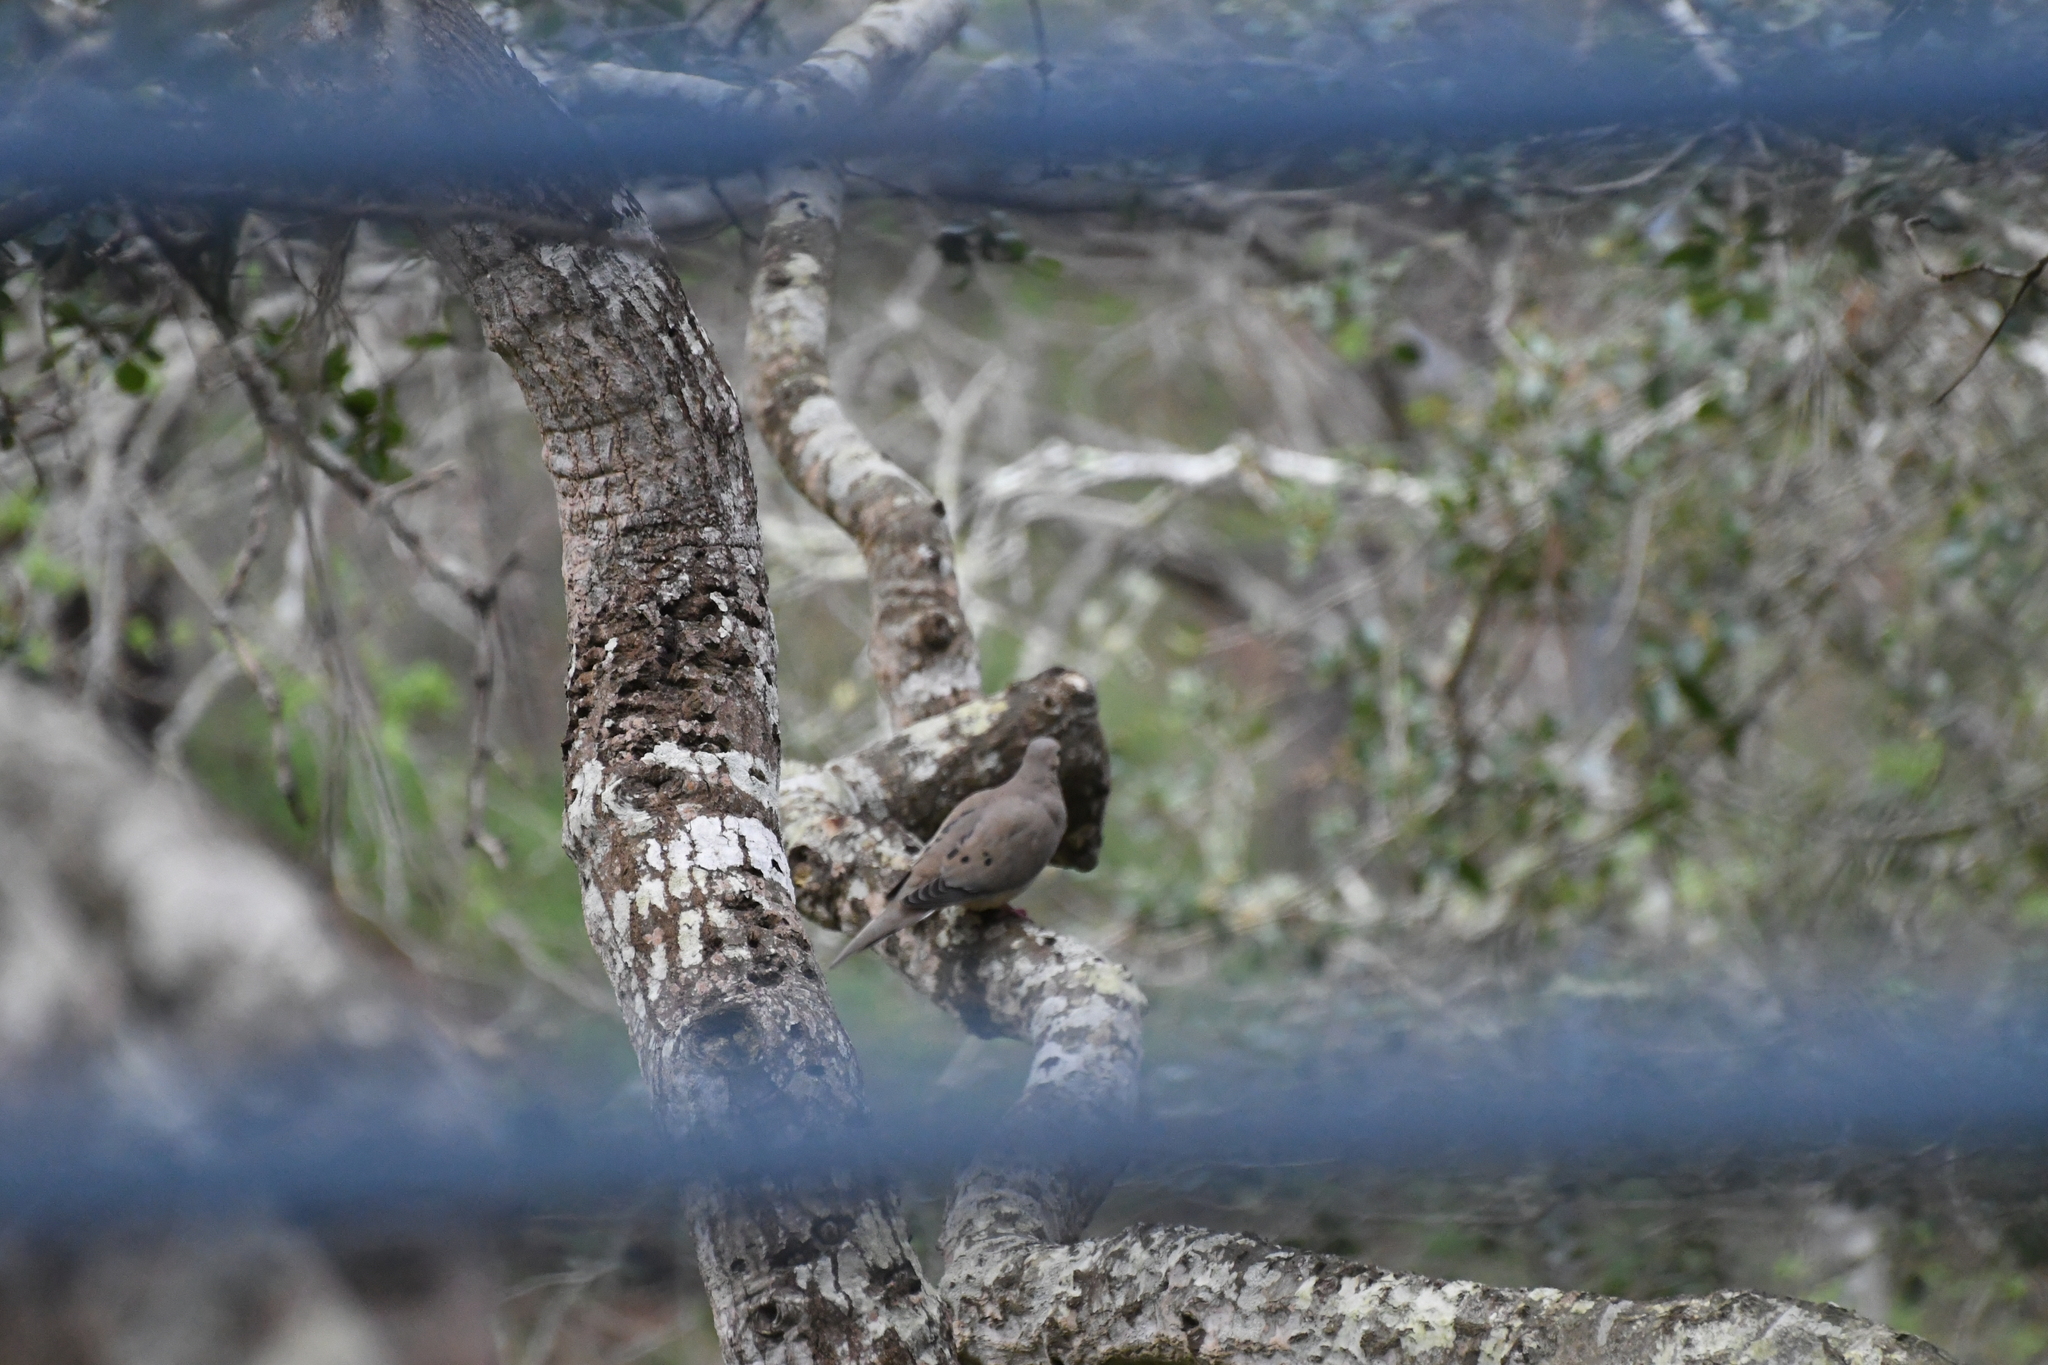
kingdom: Animalia
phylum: Chordata
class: Aves
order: Columbiformes
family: Columbidae
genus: Zenaida
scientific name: Zenaida macroura
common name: Mourning dove
